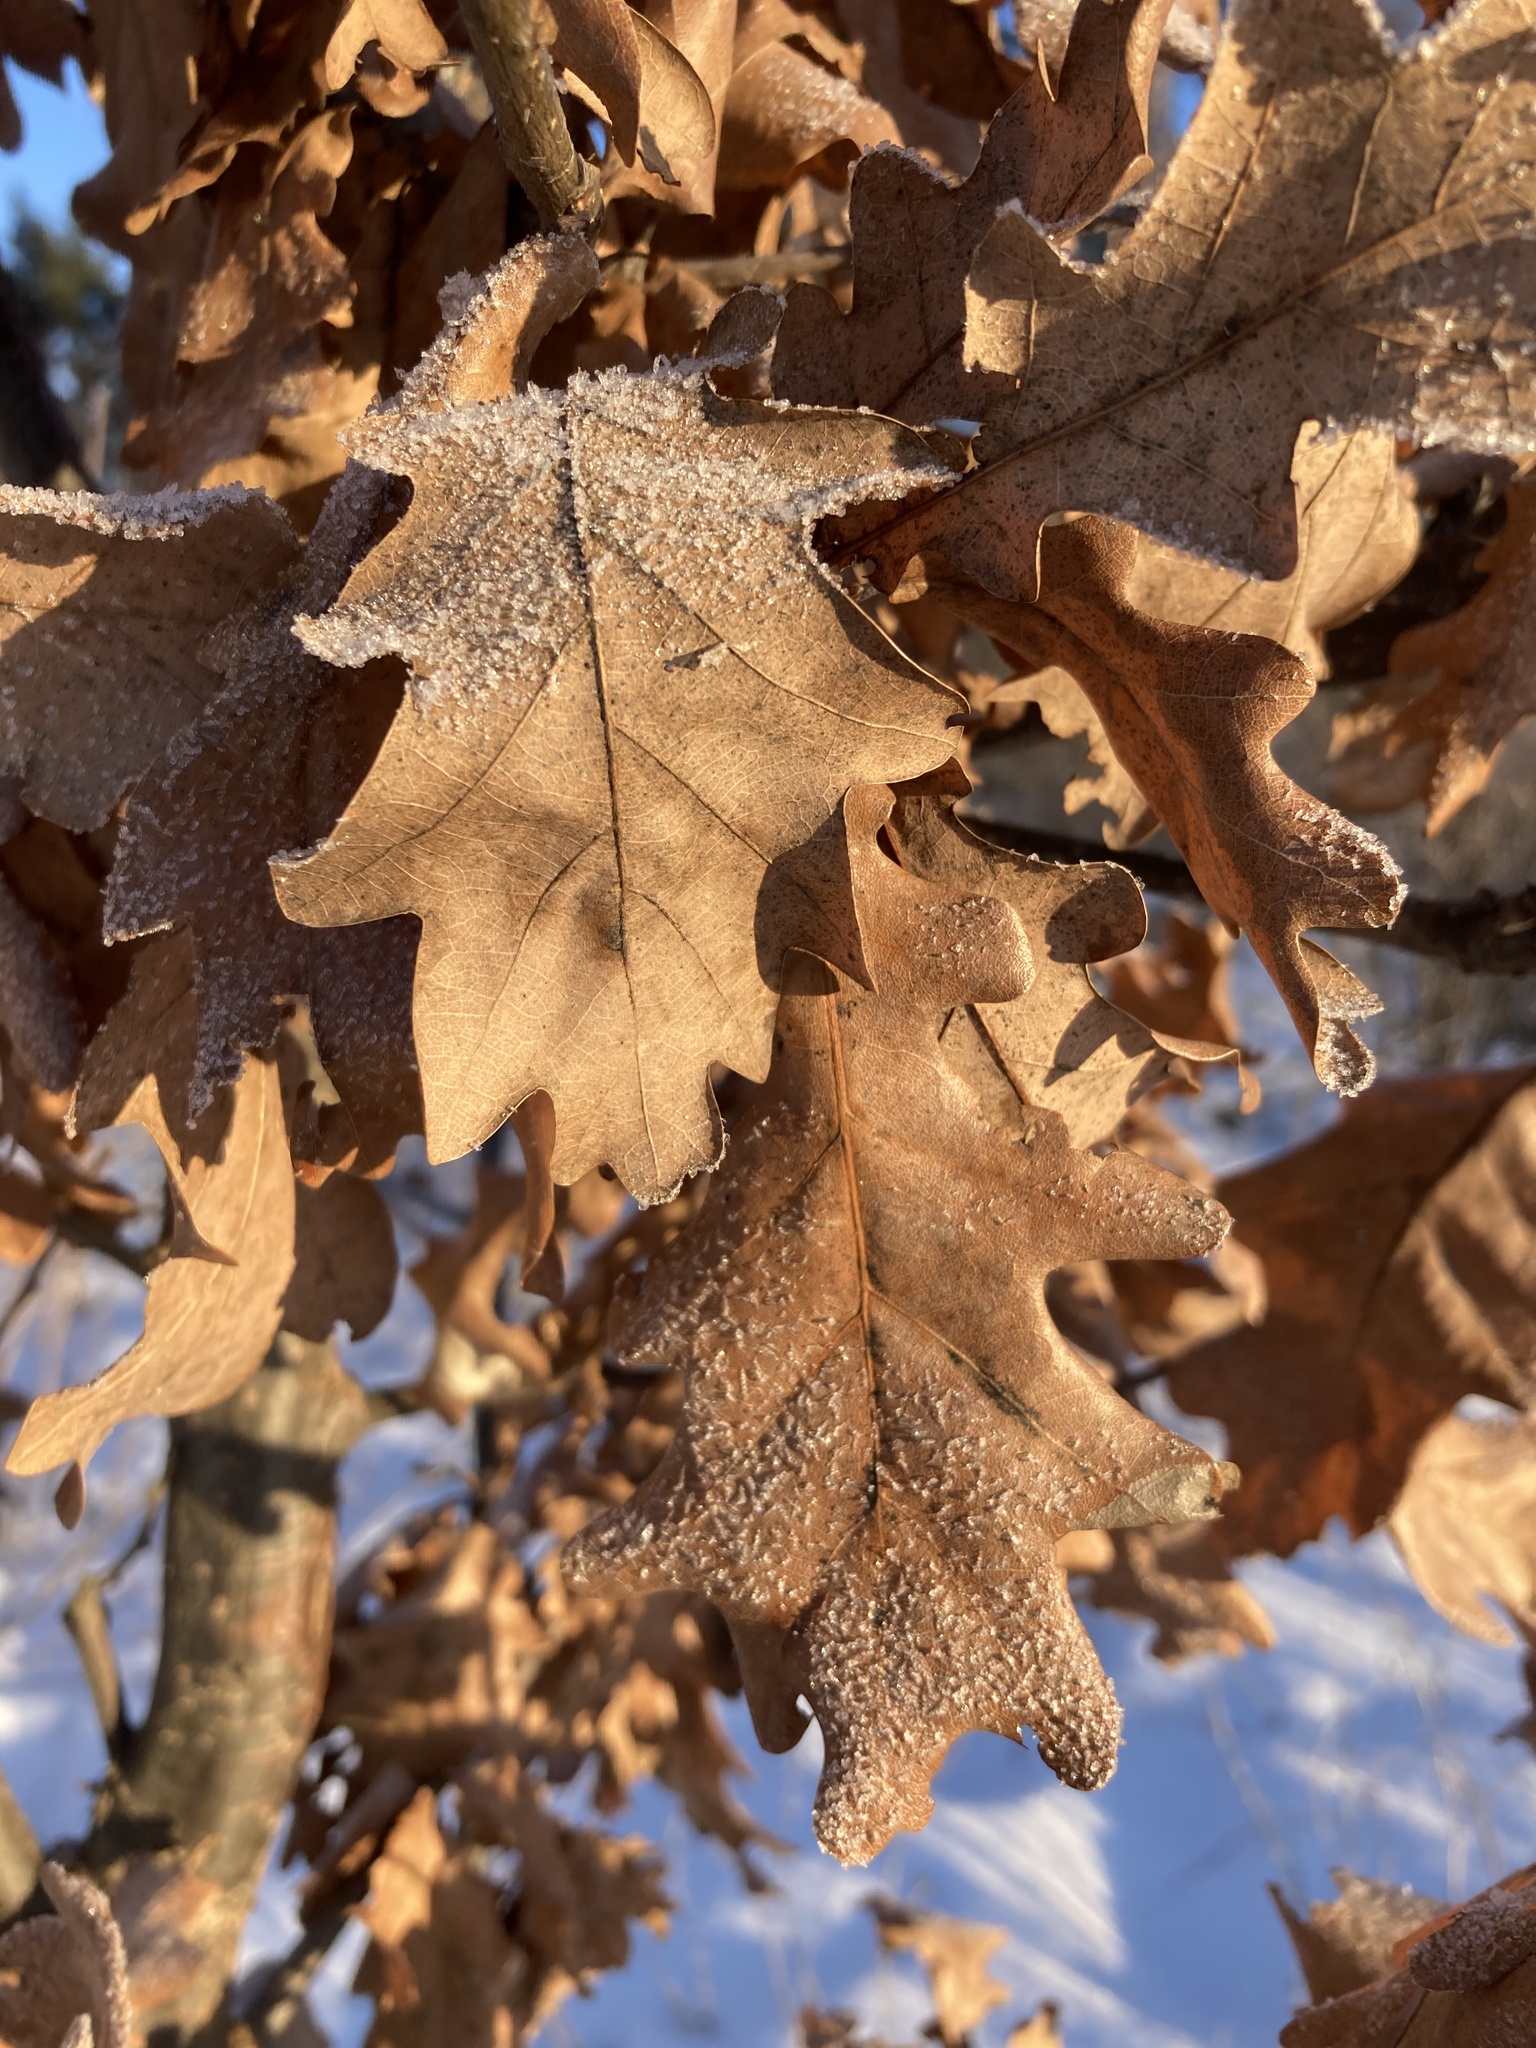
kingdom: Plantae
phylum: Tracheophyta
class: Magnoliopsida
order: Fagales
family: Fagaceae
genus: Quercus
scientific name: Quercus robur
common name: Pedunculate oak
